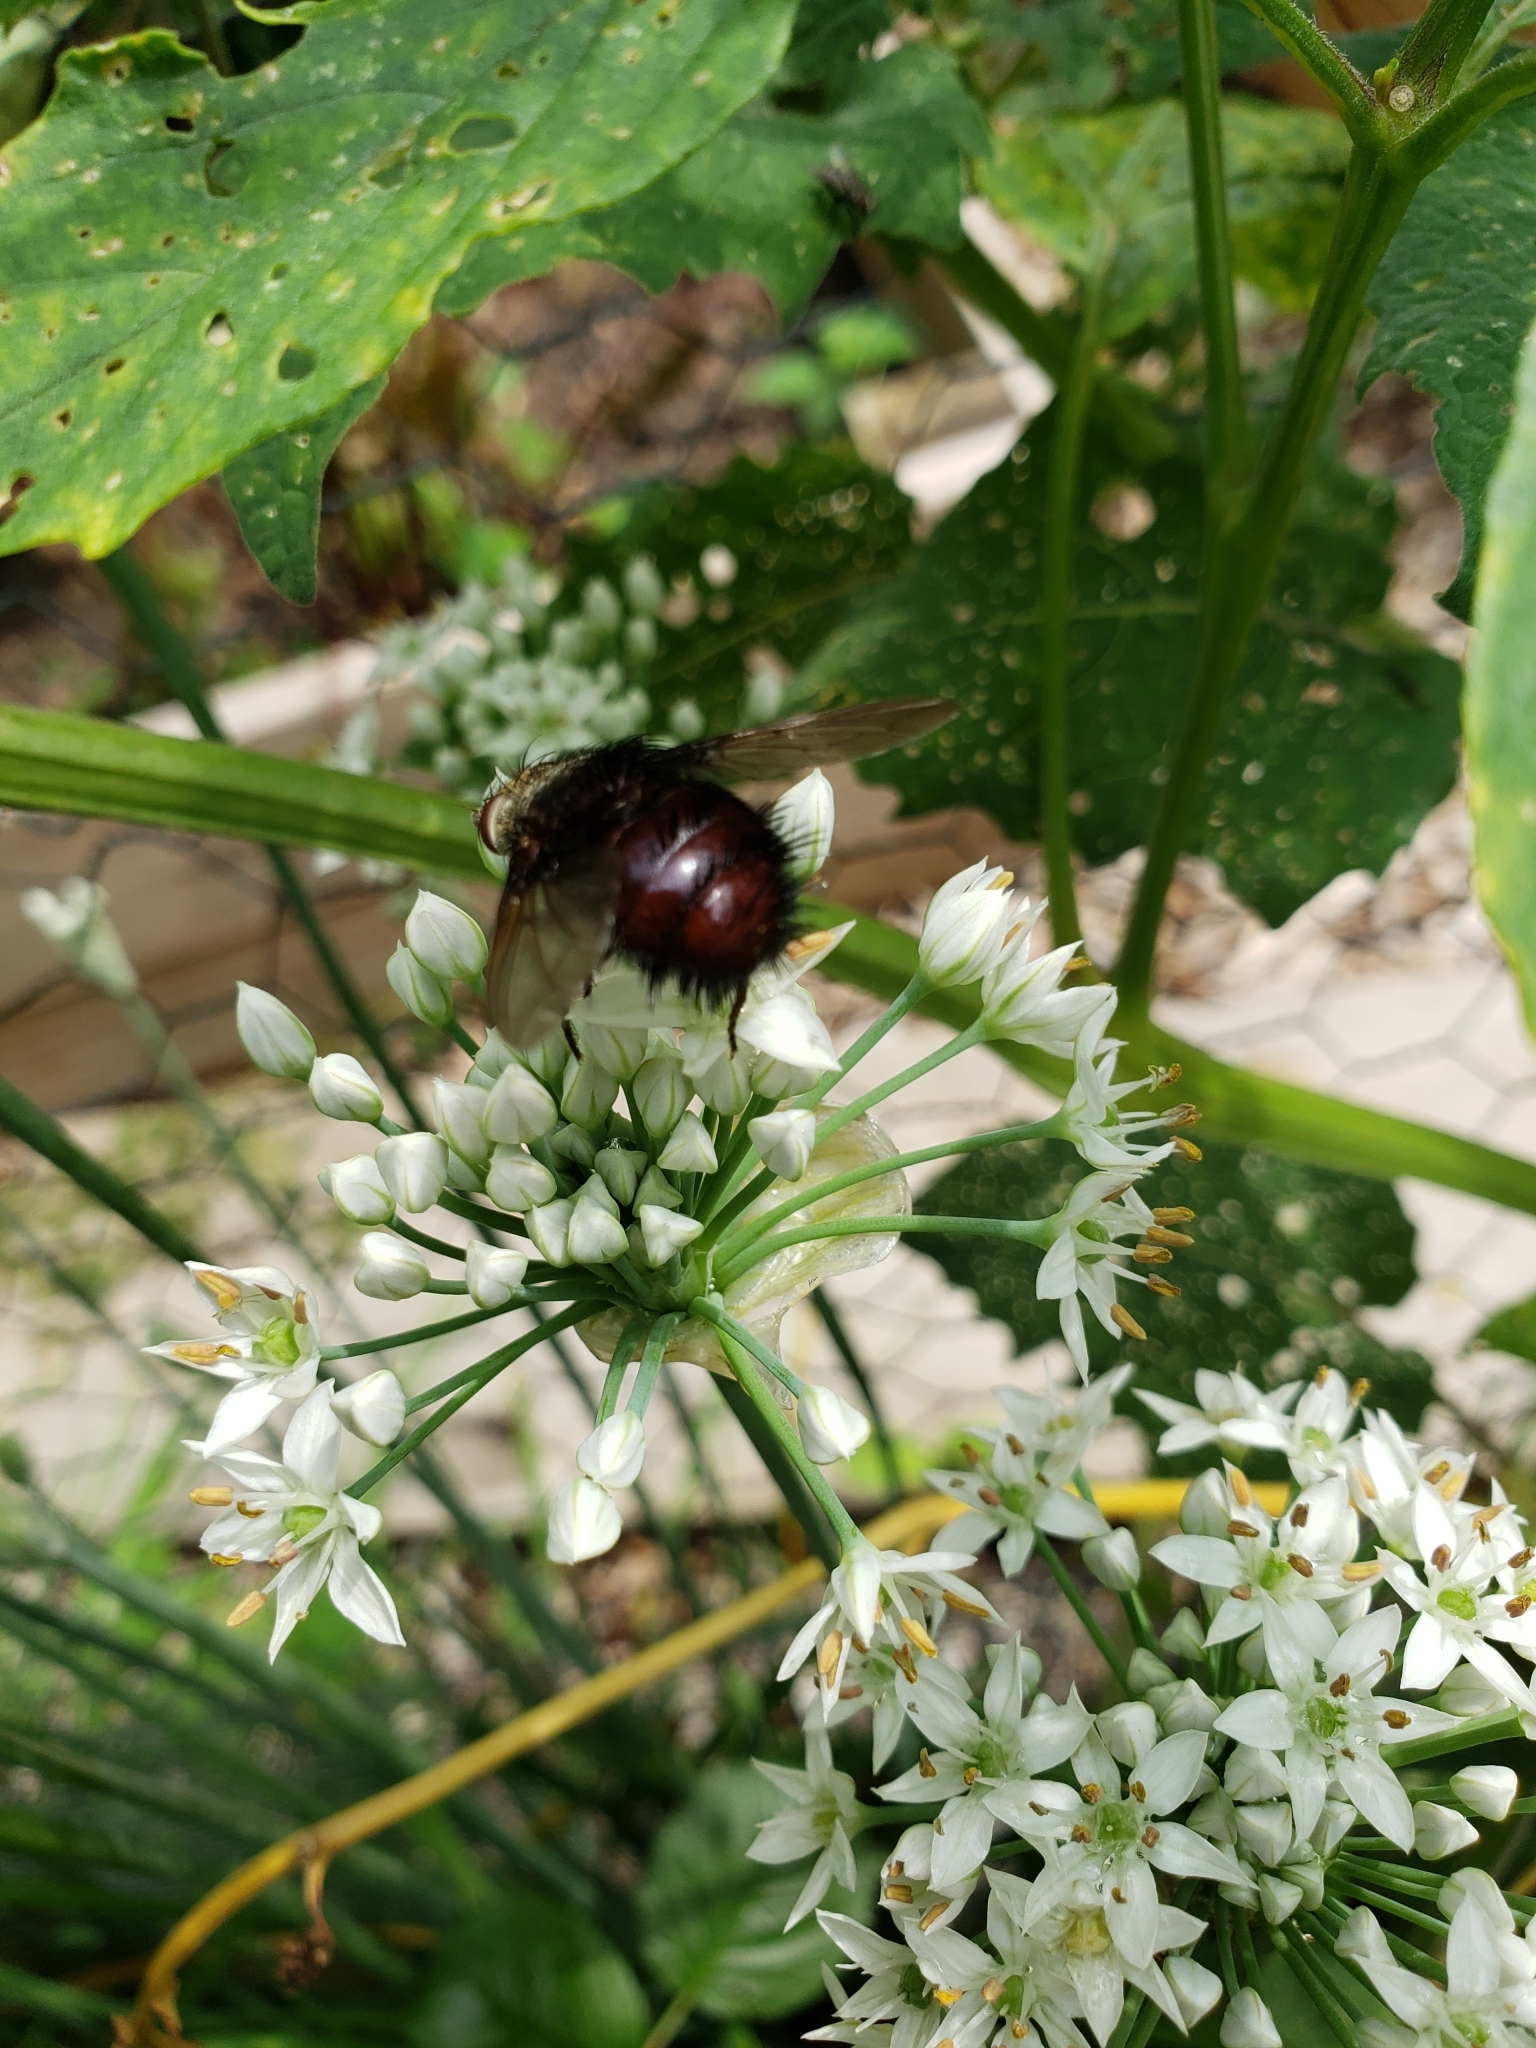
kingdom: Animalia
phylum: Arthropoda
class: Insecta
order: Diptera
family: Tachinidae
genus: Juriniopsis
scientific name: Juriniopsis adusta
